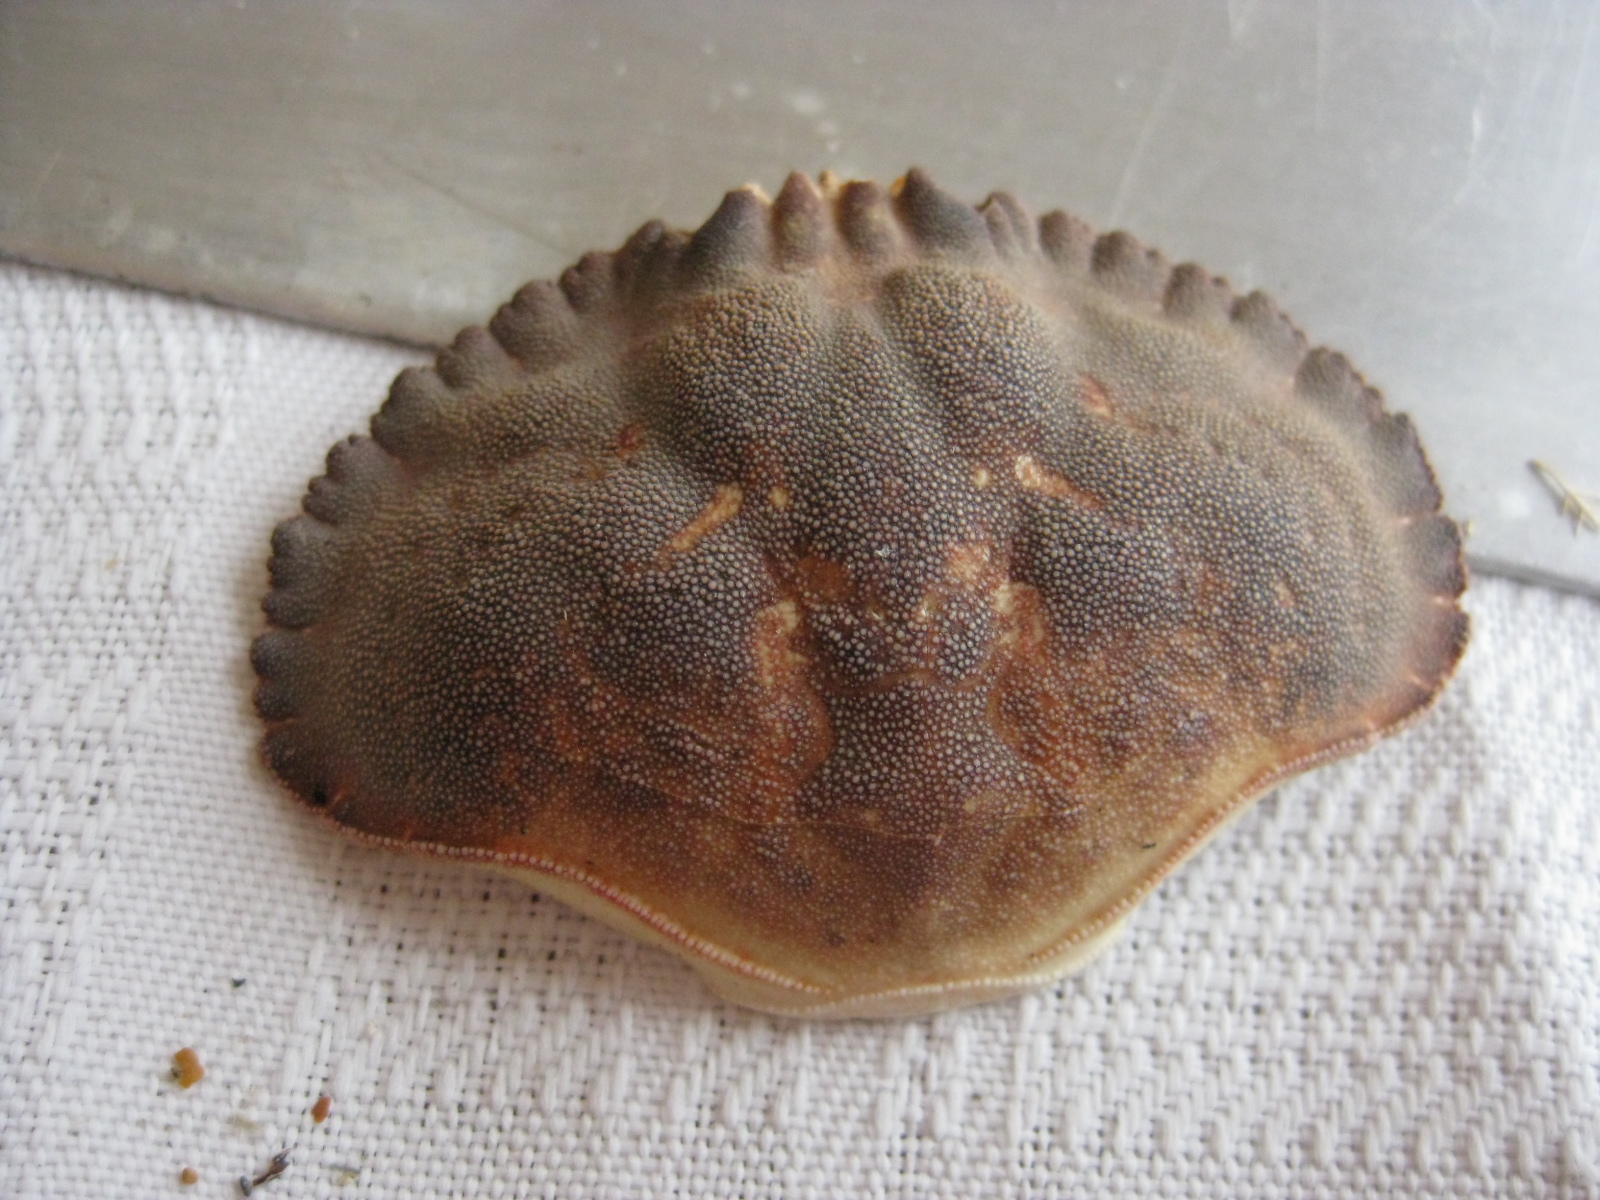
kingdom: Animalia
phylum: Arthropoda
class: Malacostraca
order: Decapoda
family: Cancridae
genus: Metacarcinus
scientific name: Metacarcinus novaezelandiae
